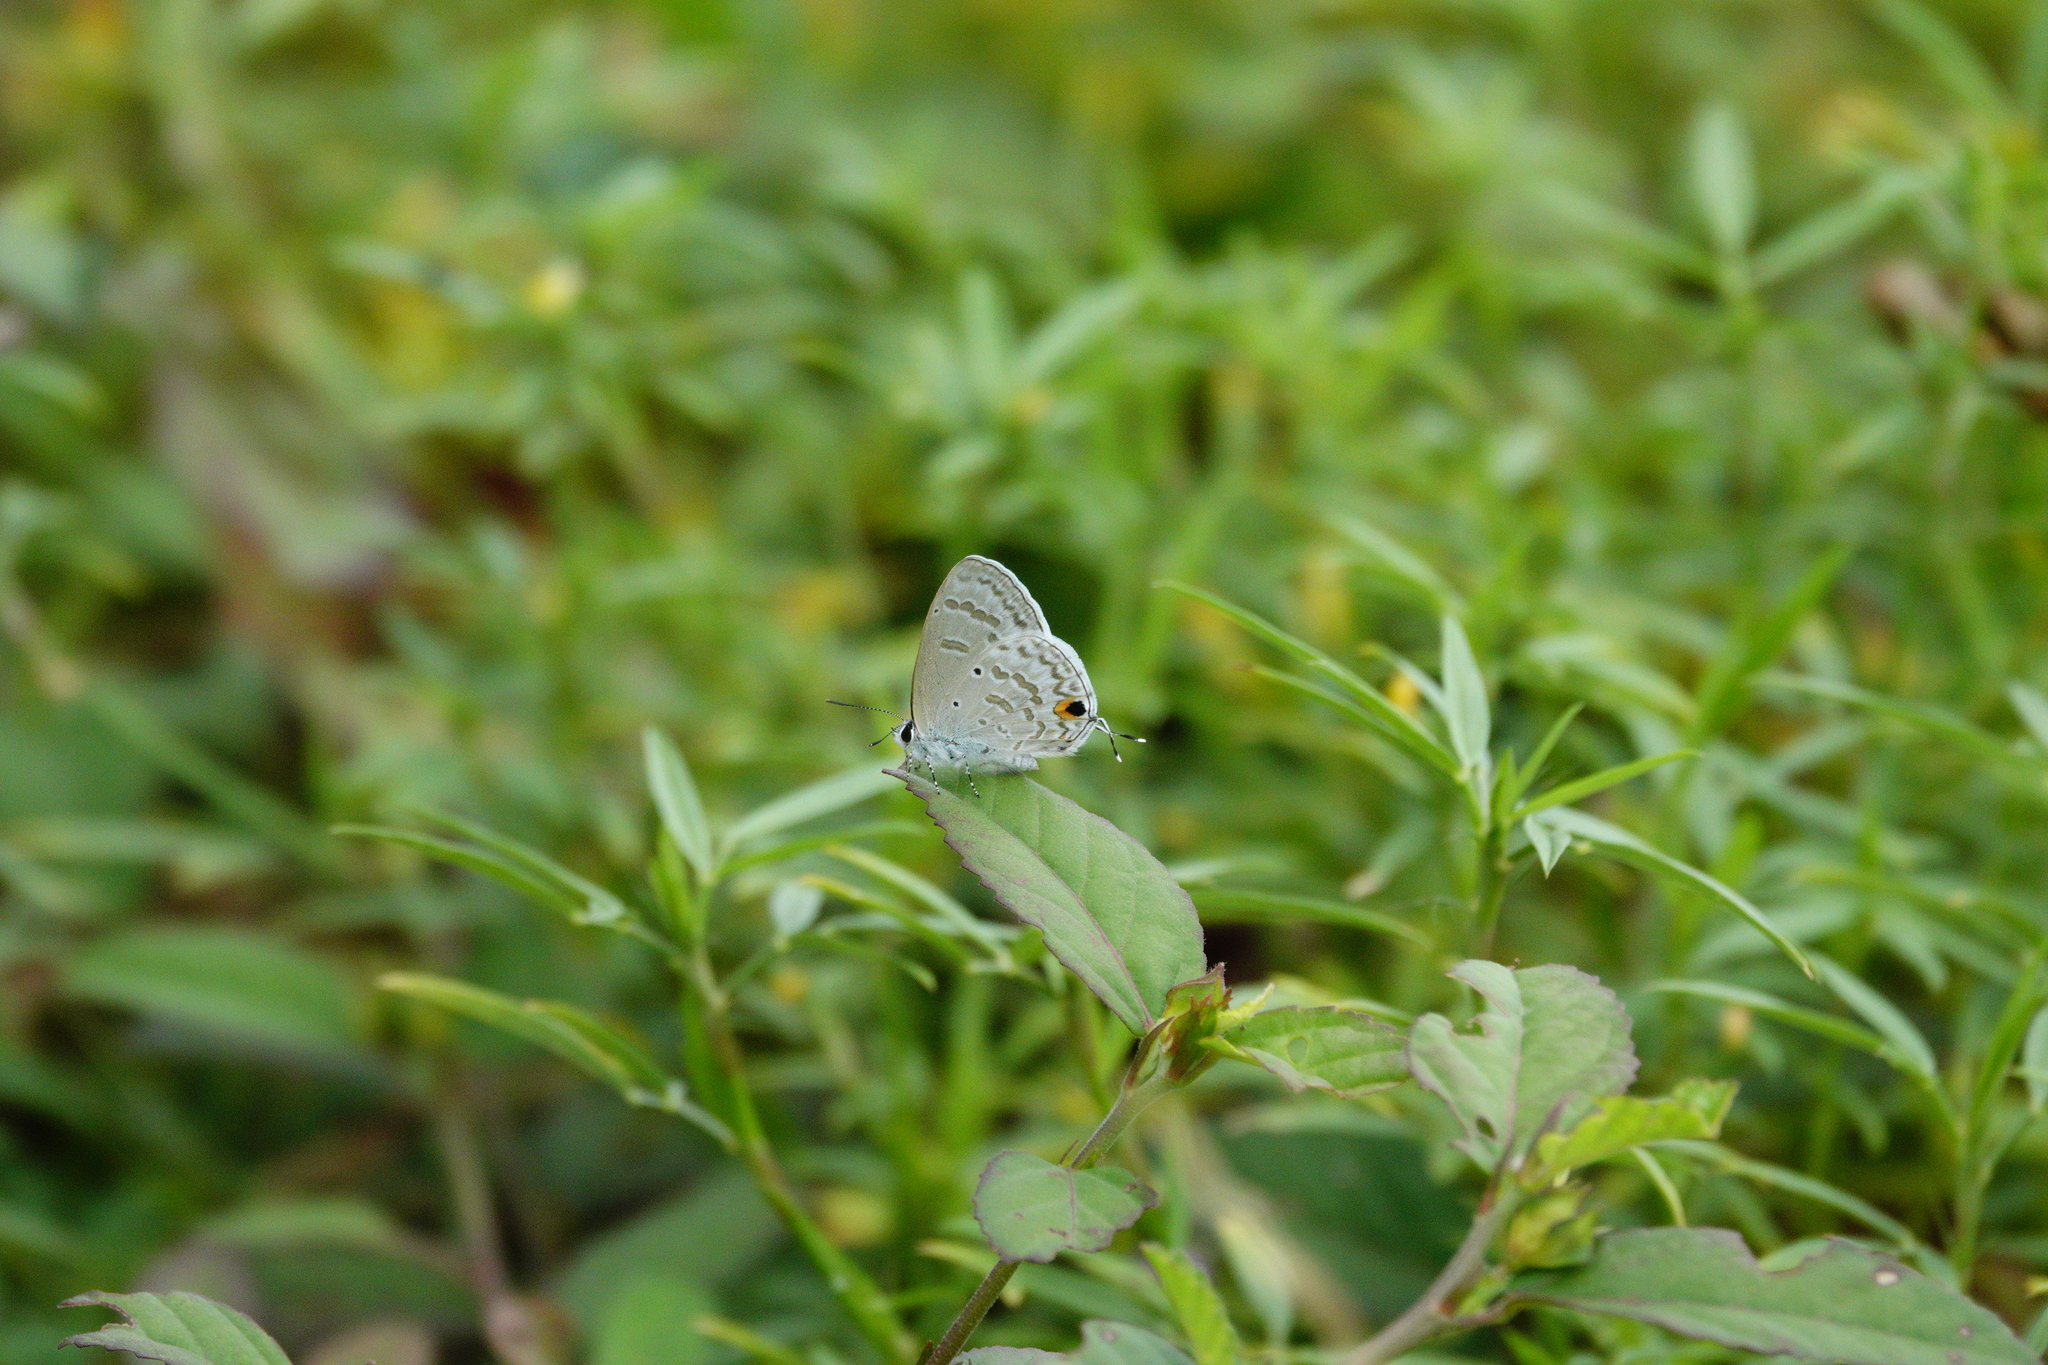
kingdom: Animalia
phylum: Arthropoda
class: Insecta
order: Lepidoptera
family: Lycaenidae
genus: Catochrysops
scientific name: Catochrysops panormus
